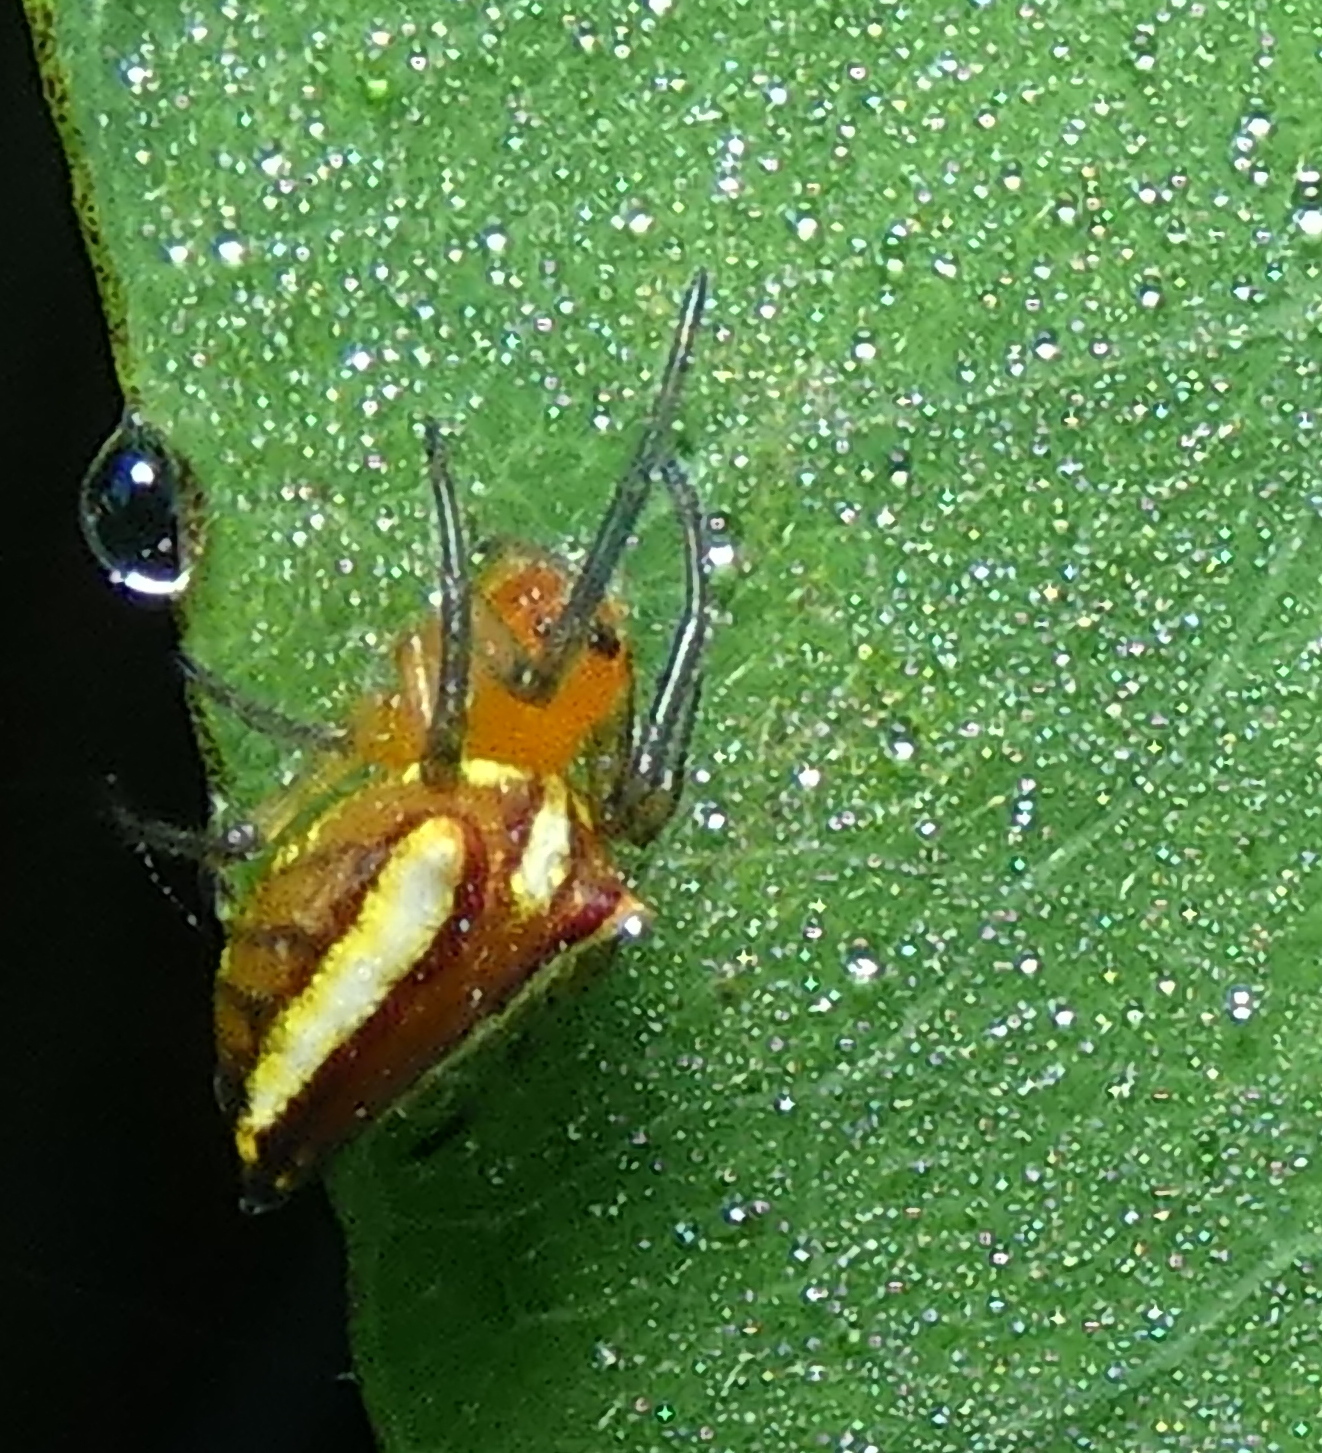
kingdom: Animalia
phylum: Arthropoda
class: Arachnida
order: Araneae
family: Araneidae
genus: Alpaida
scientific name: Alpaida bicornuta
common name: Orb weavers
